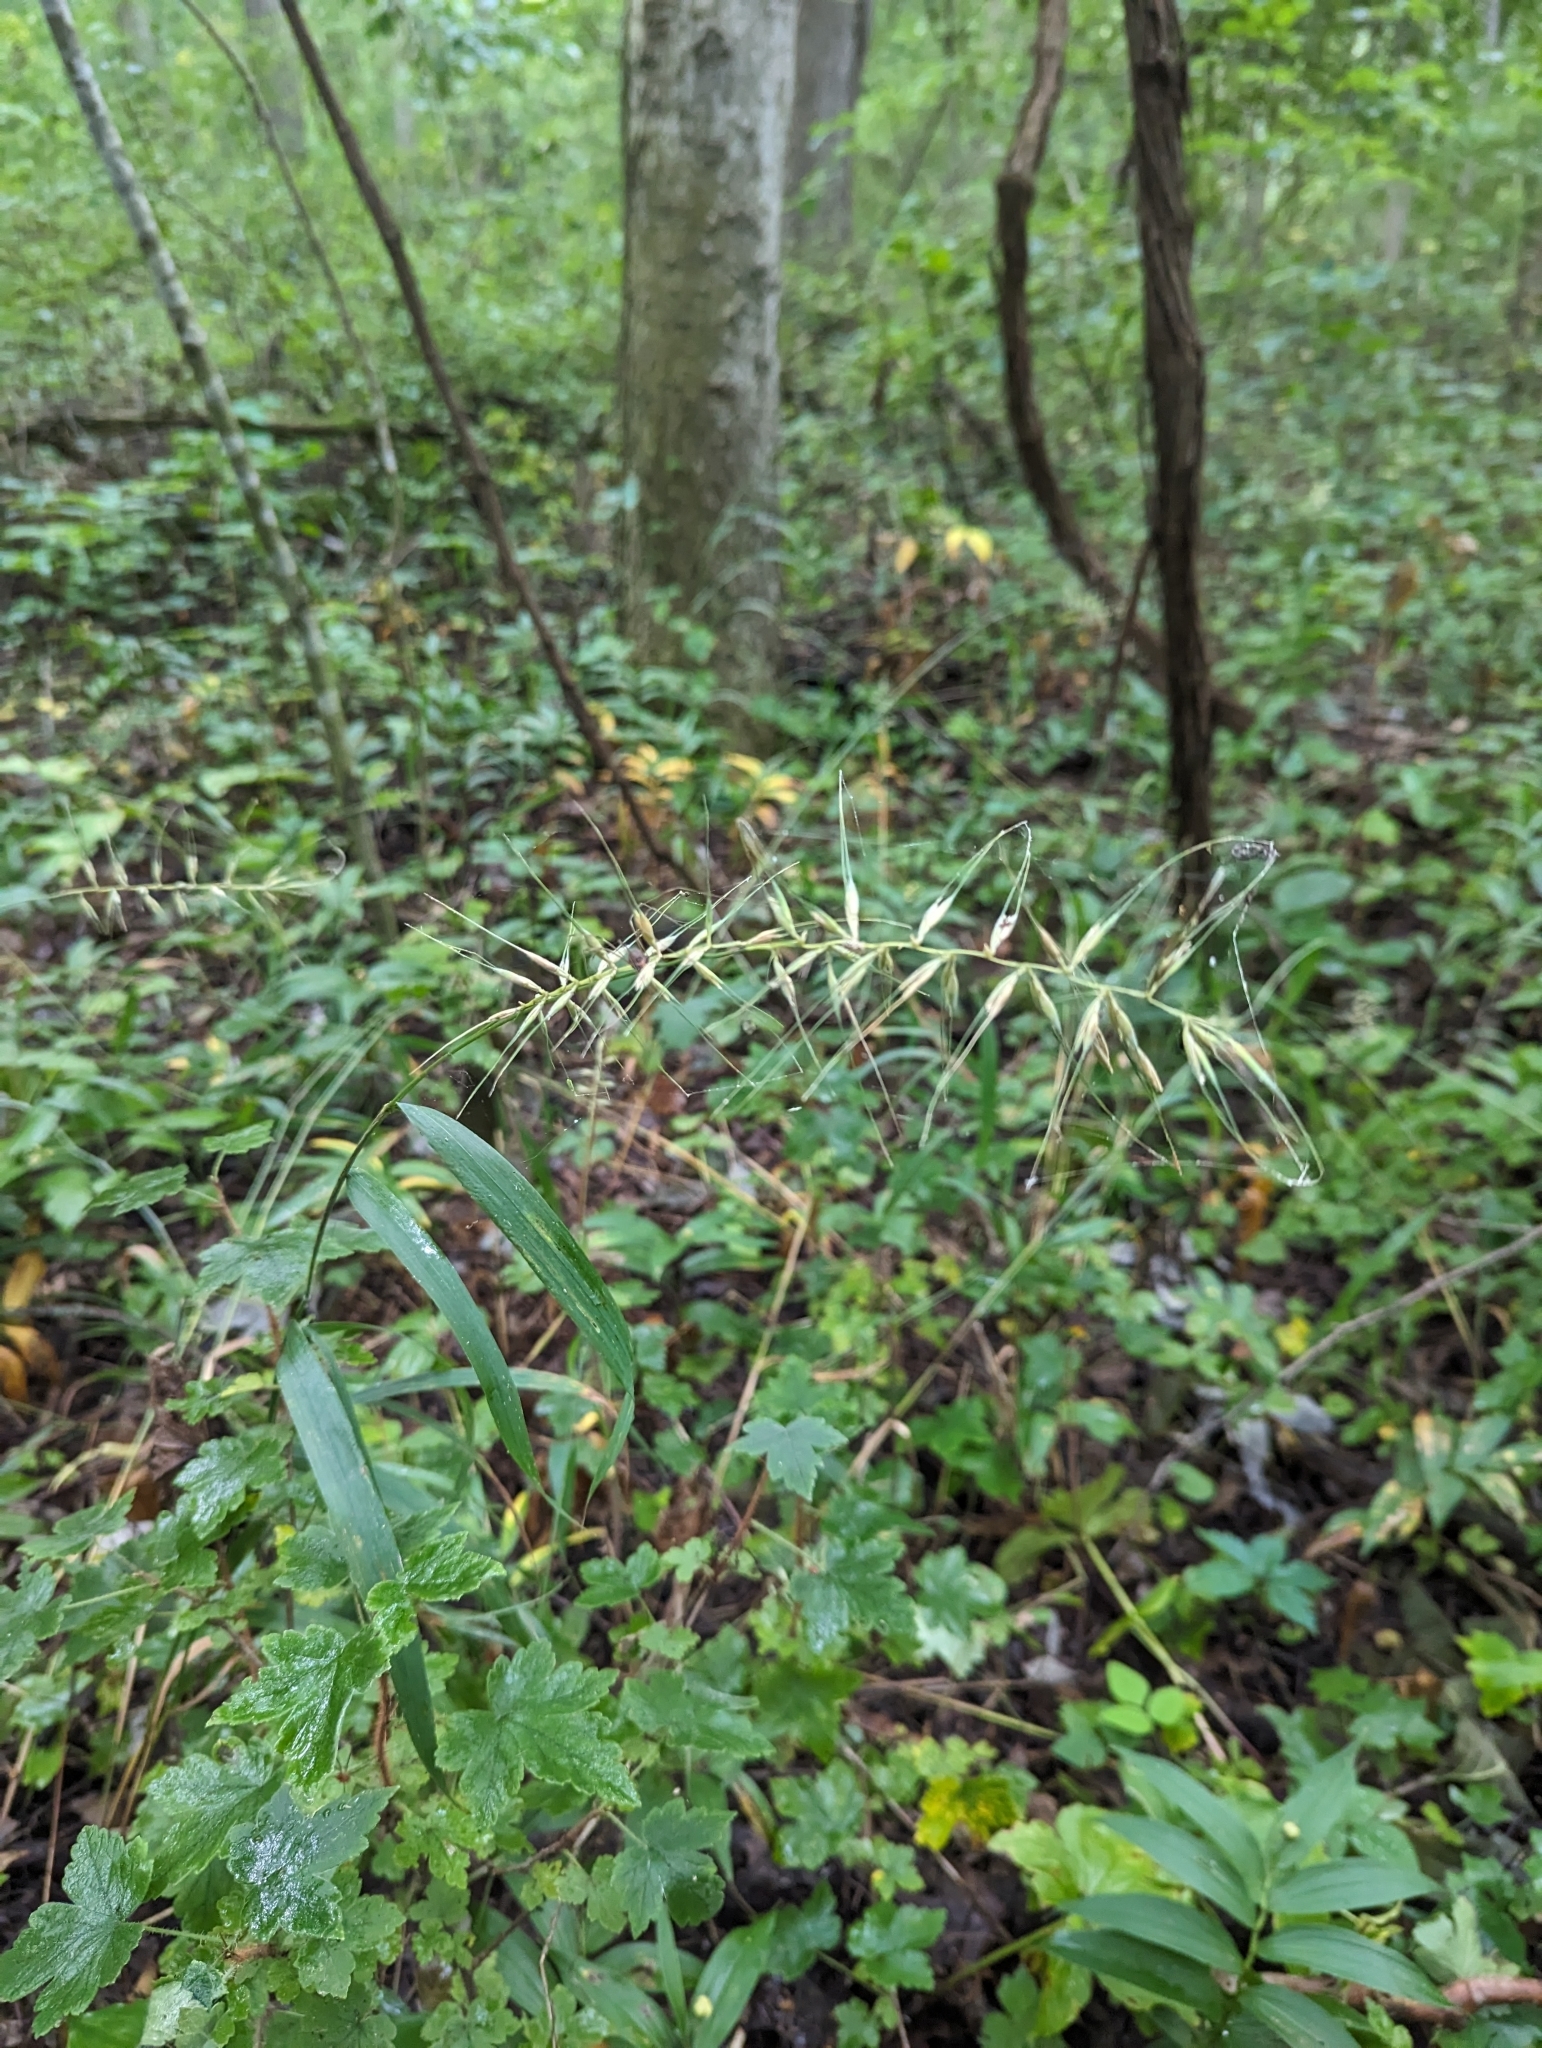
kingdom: Plantae
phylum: Tracheophyta
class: Liliopsida
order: Poales
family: Poaceae
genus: Elymus
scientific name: Elymus hystrix
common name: Bottlebrush grass
